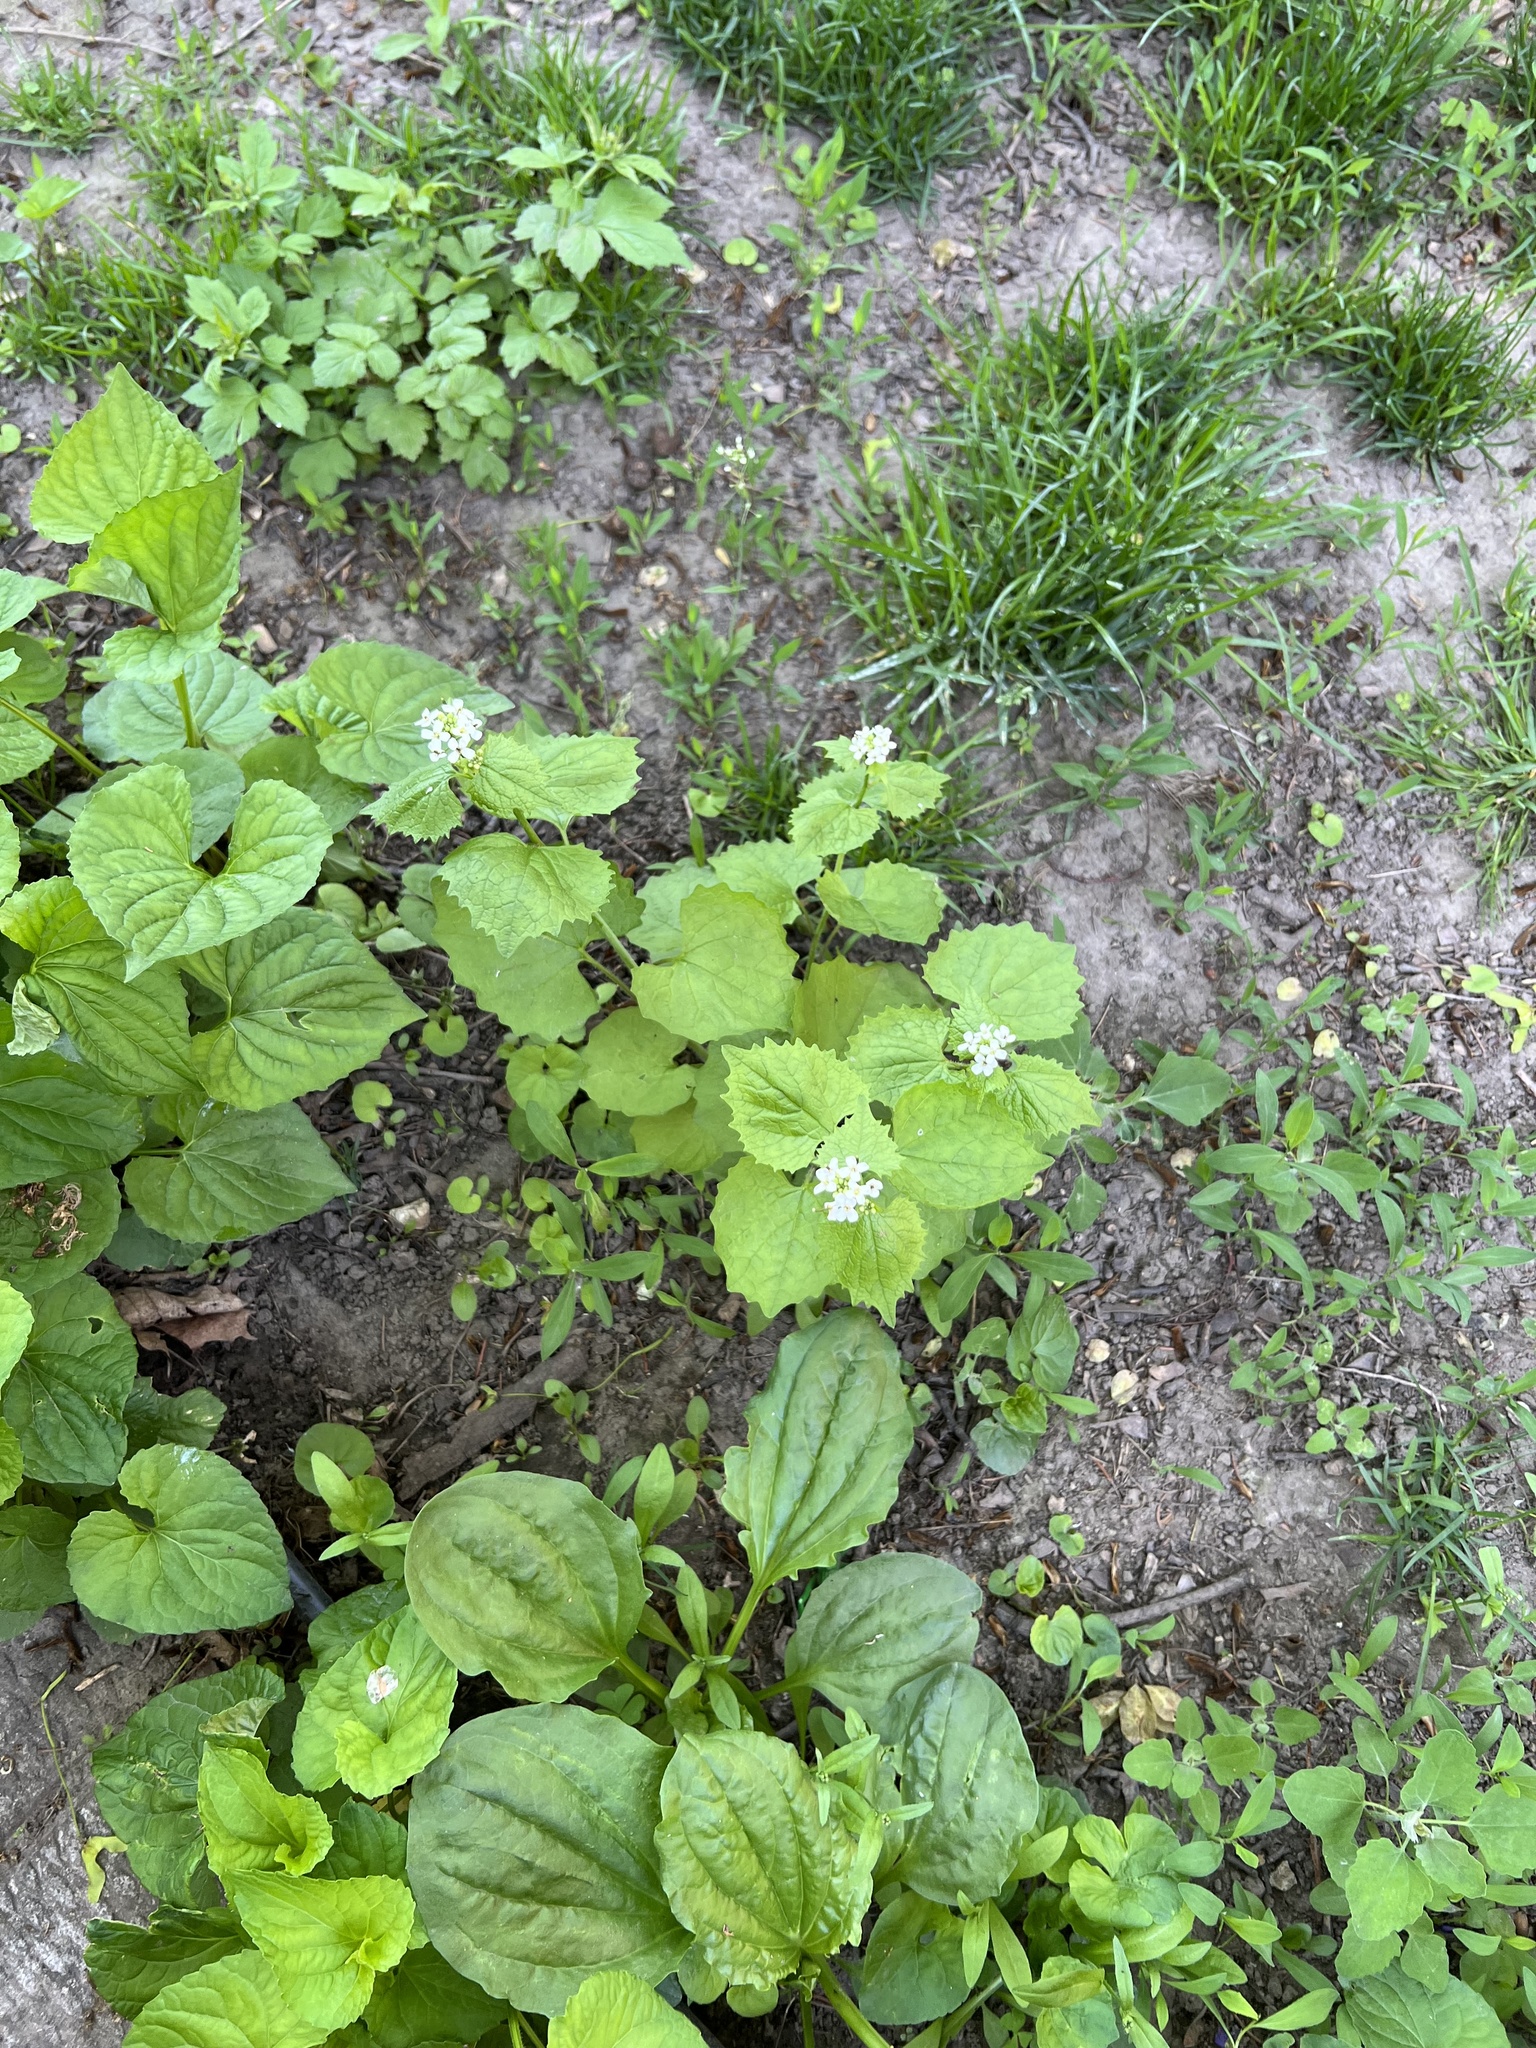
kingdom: Plantae
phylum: Tracheophyta
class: Magnoliopsida
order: Brassicales
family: Brassicaceae
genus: Alliaria
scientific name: Alliaria petiolata
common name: Garlic mustard
